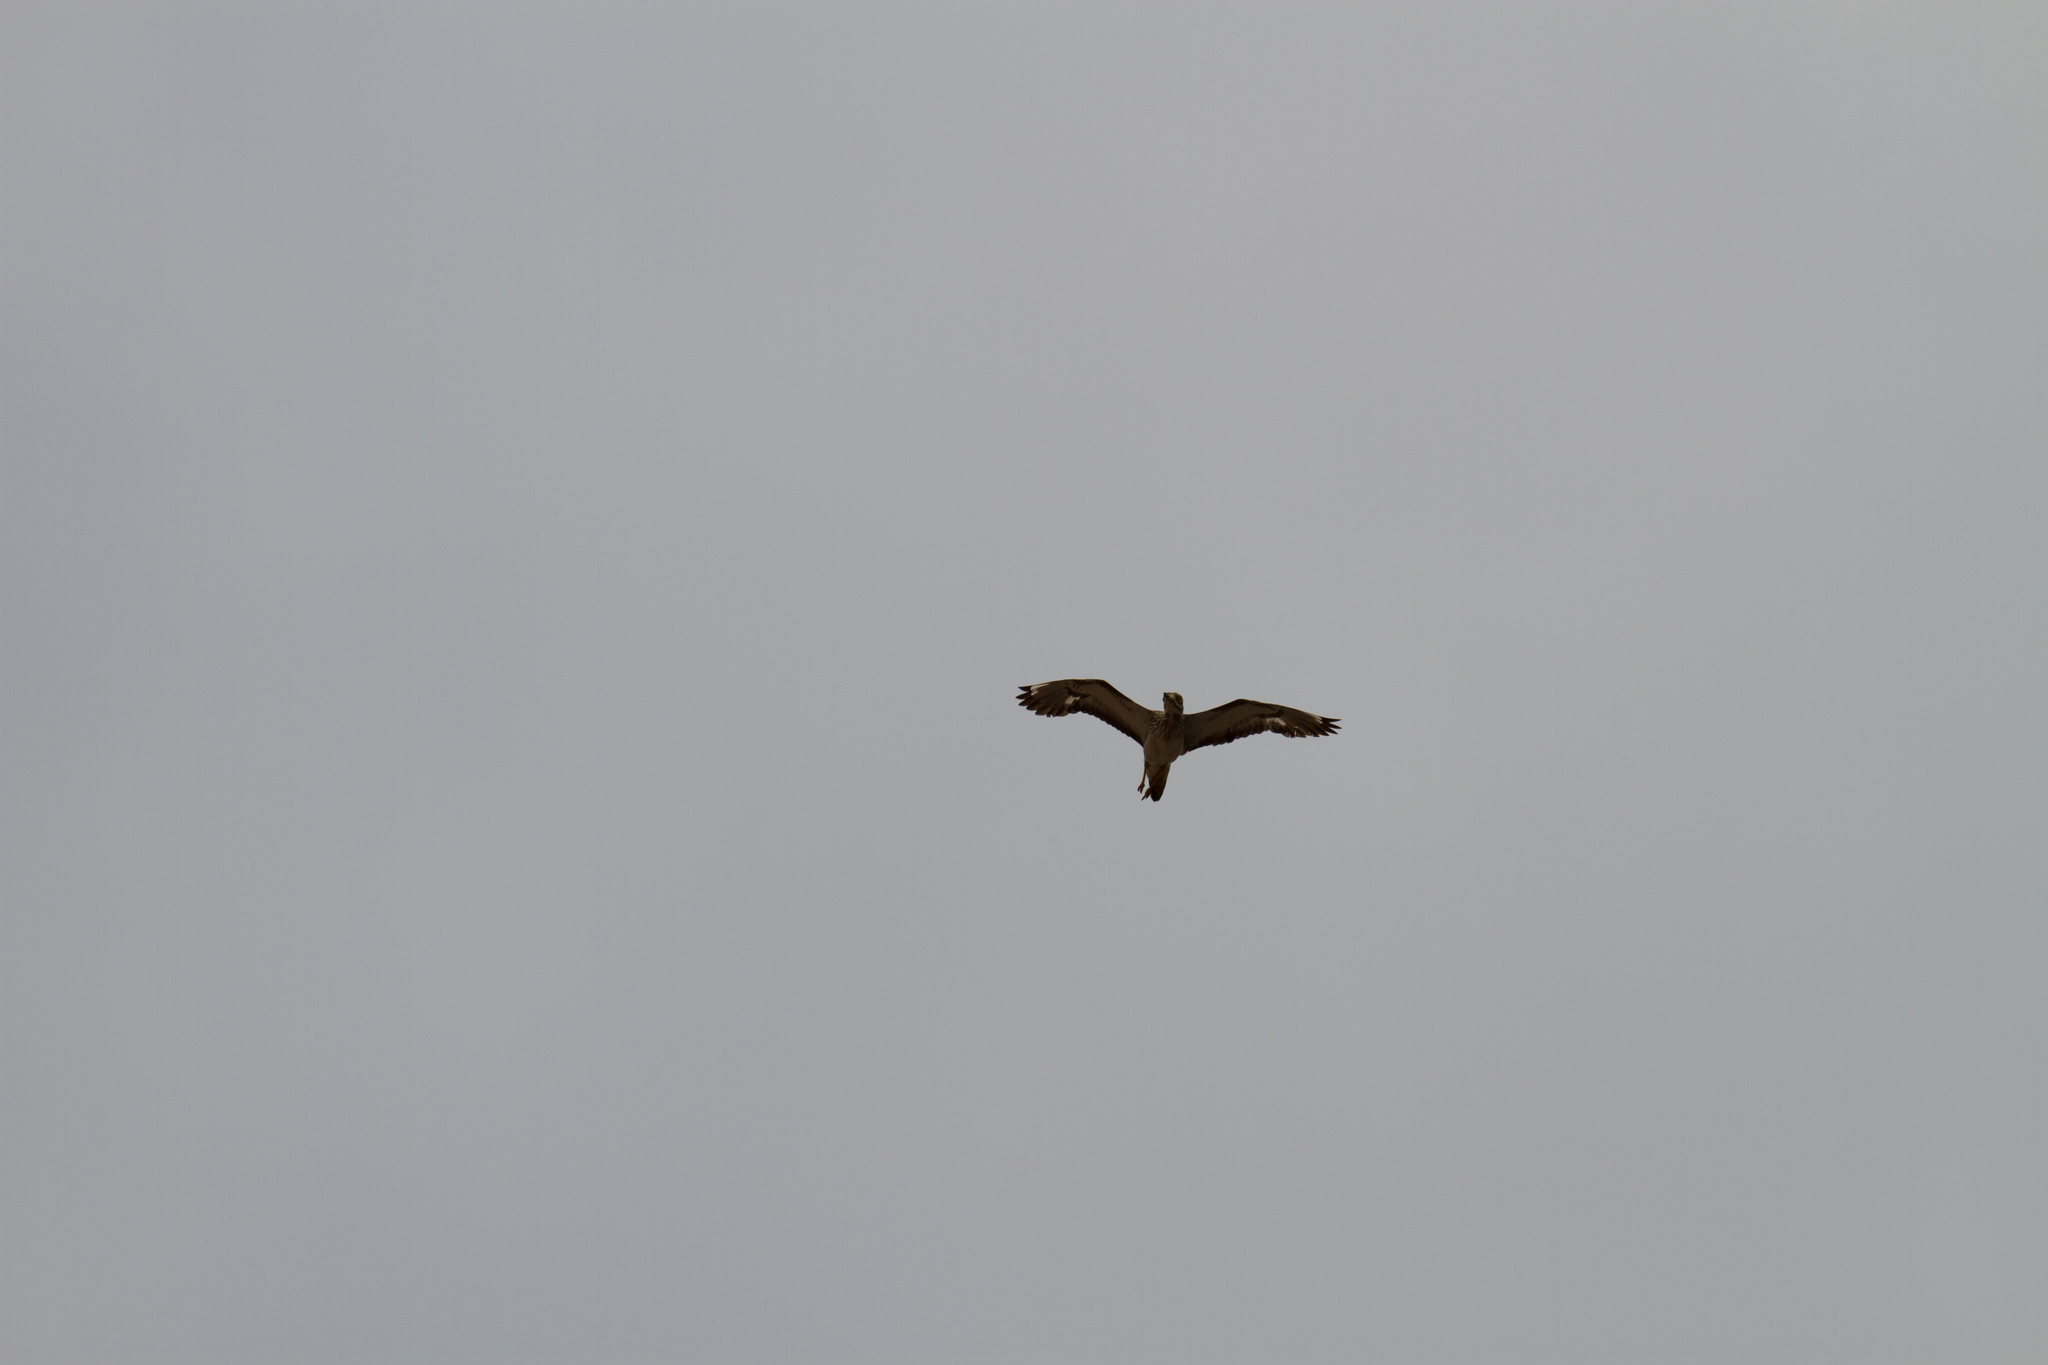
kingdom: Animalia
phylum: Chordata
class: Aves
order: Charadriiformes
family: Burhinidae
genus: Burhinus
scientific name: Burhinus oedicnemus
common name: Eurasian stone-curlew
